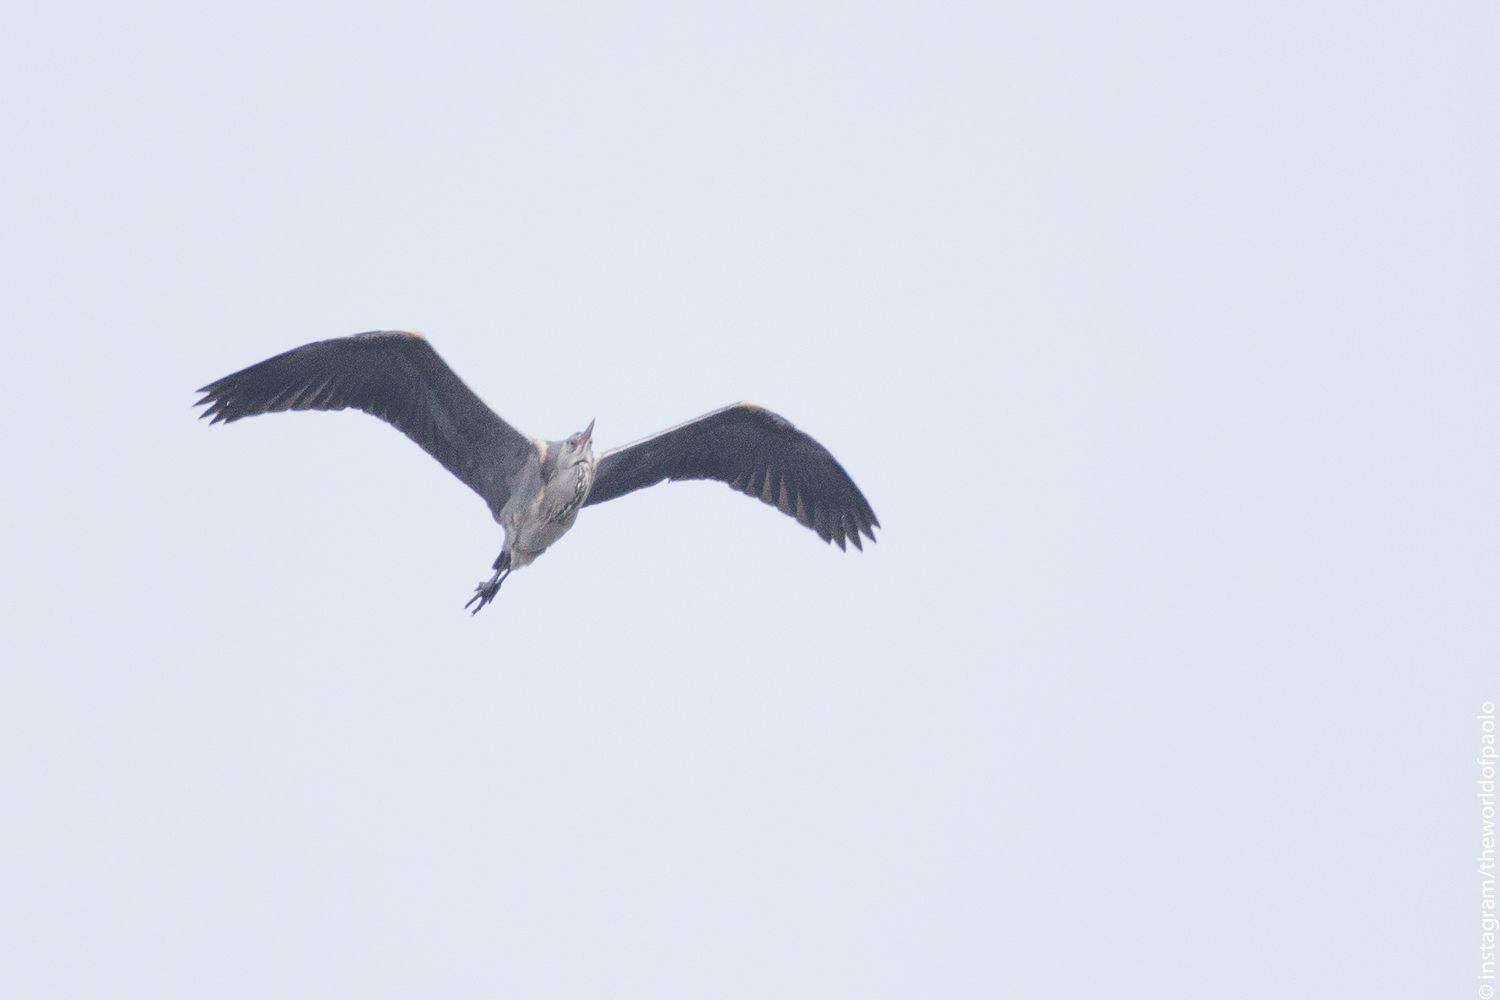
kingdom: Animalia
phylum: Chordata
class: Aves
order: Pelecaniformes
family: Ardeidae
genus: Ardea
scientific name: Ardea cinerea
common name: Grey heron
